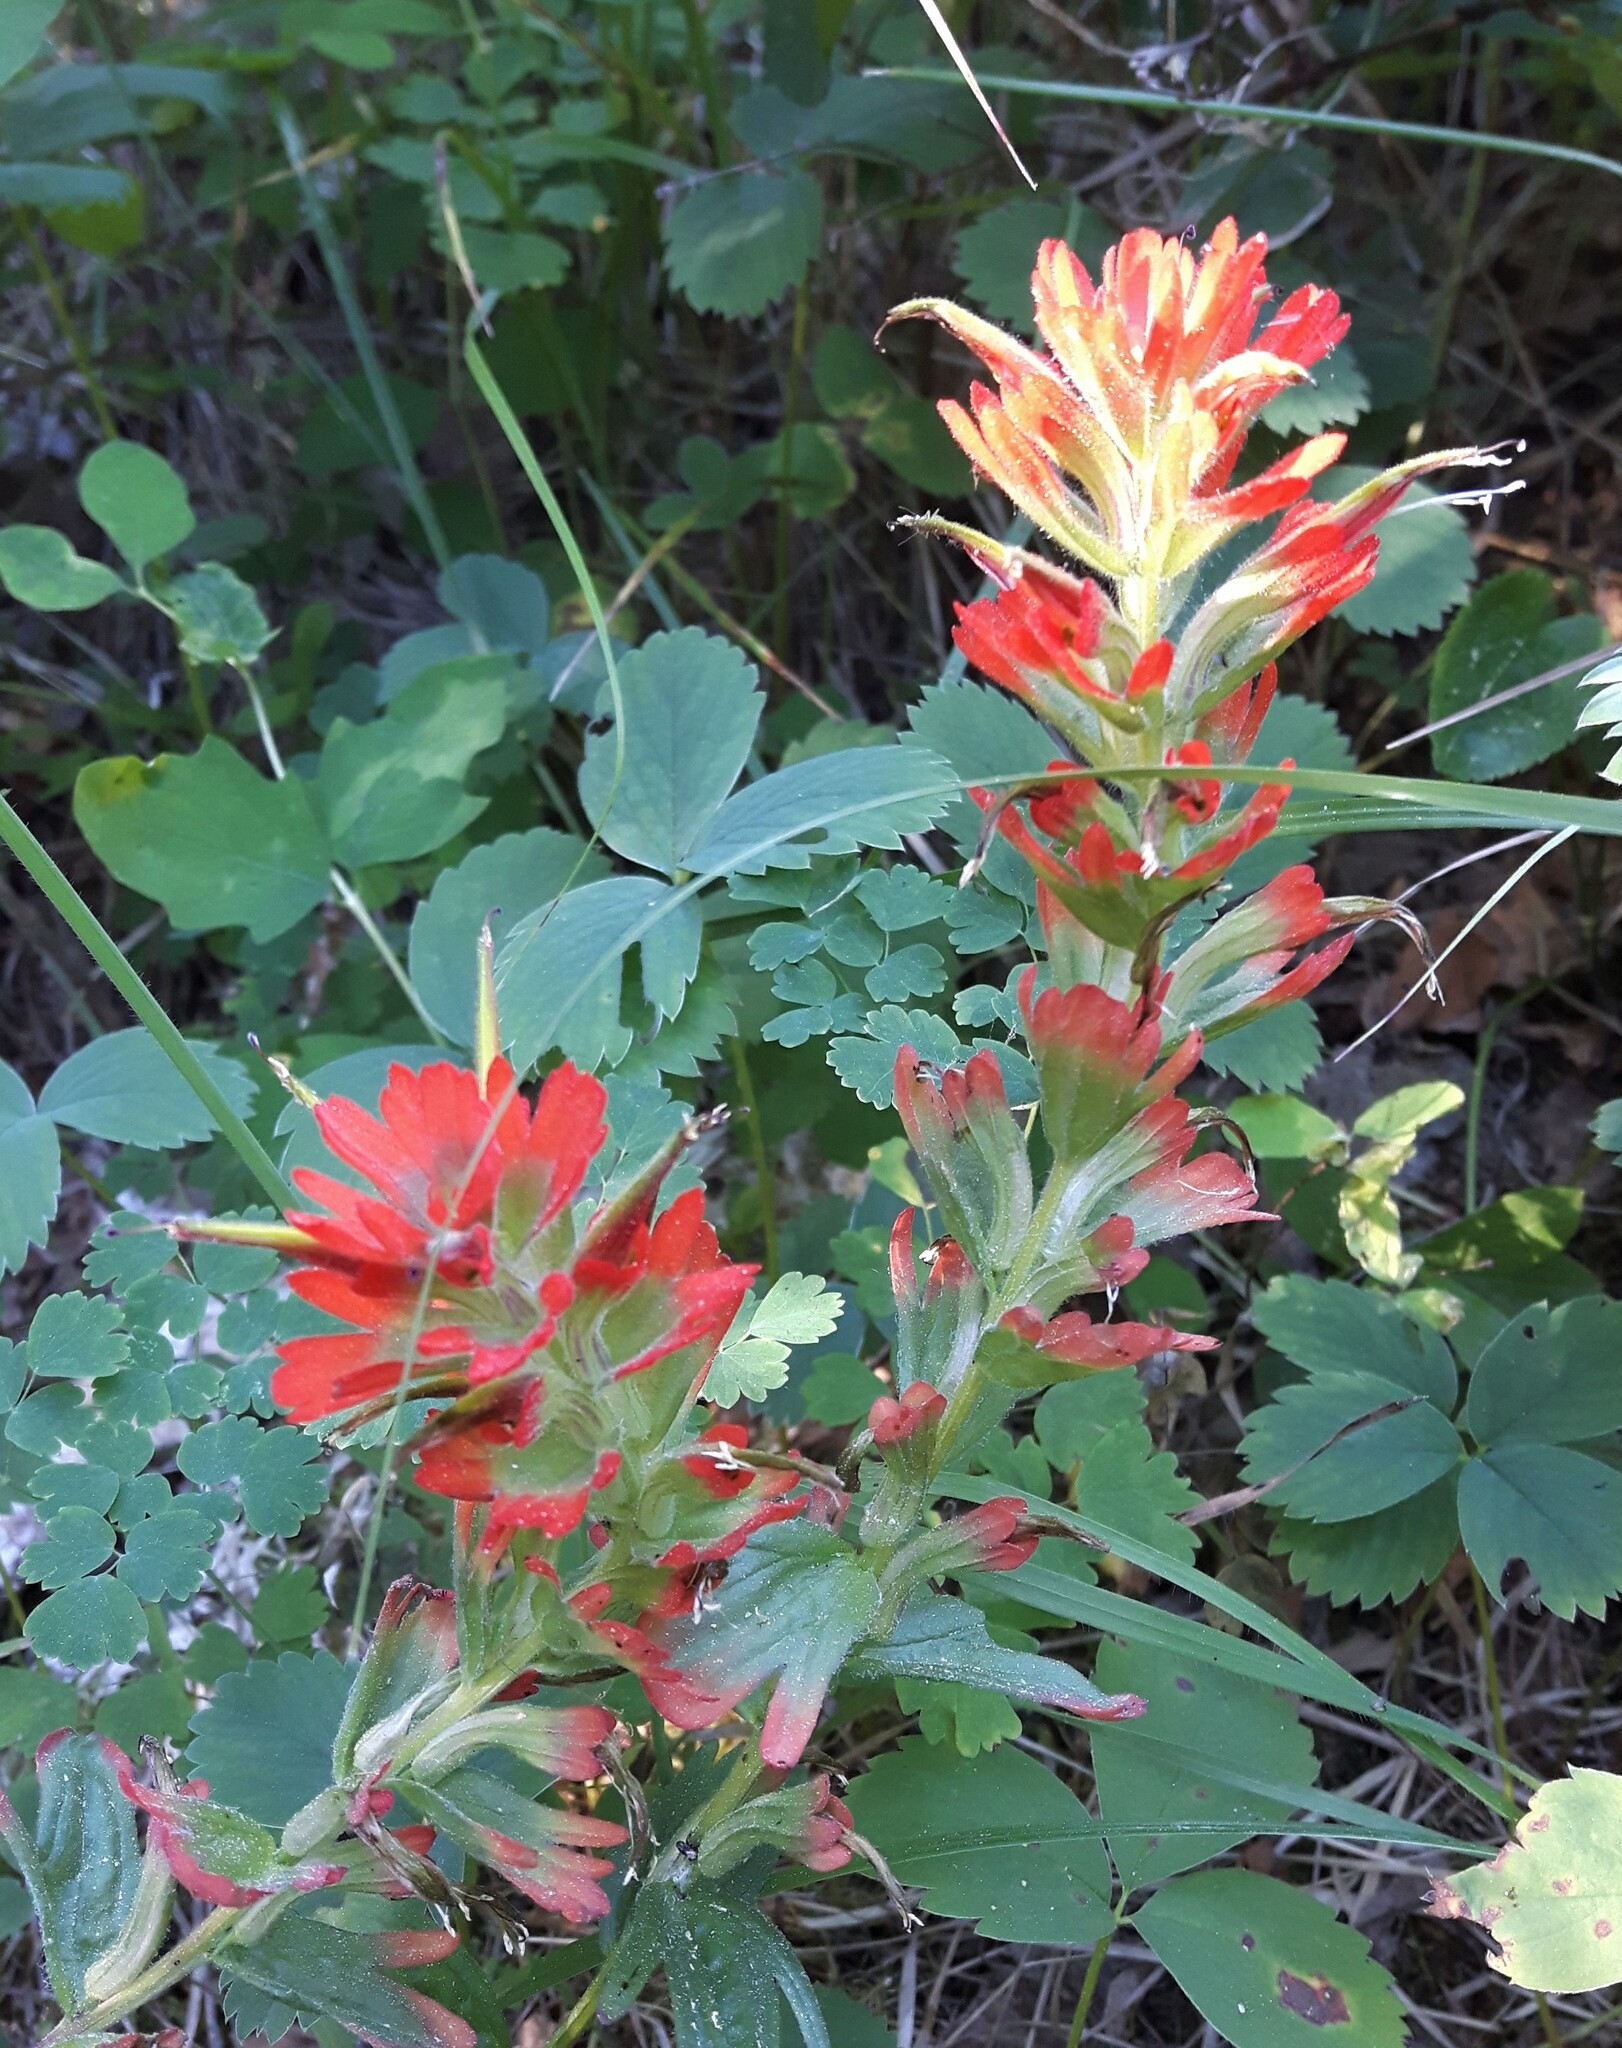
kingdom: Plantae
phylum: Tracheophyta
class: Magnoliopsida
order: Lamiales
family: Orobanchaceae
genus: Castilleja
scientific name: Castilleja hispida
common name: Bristly paintbrush
